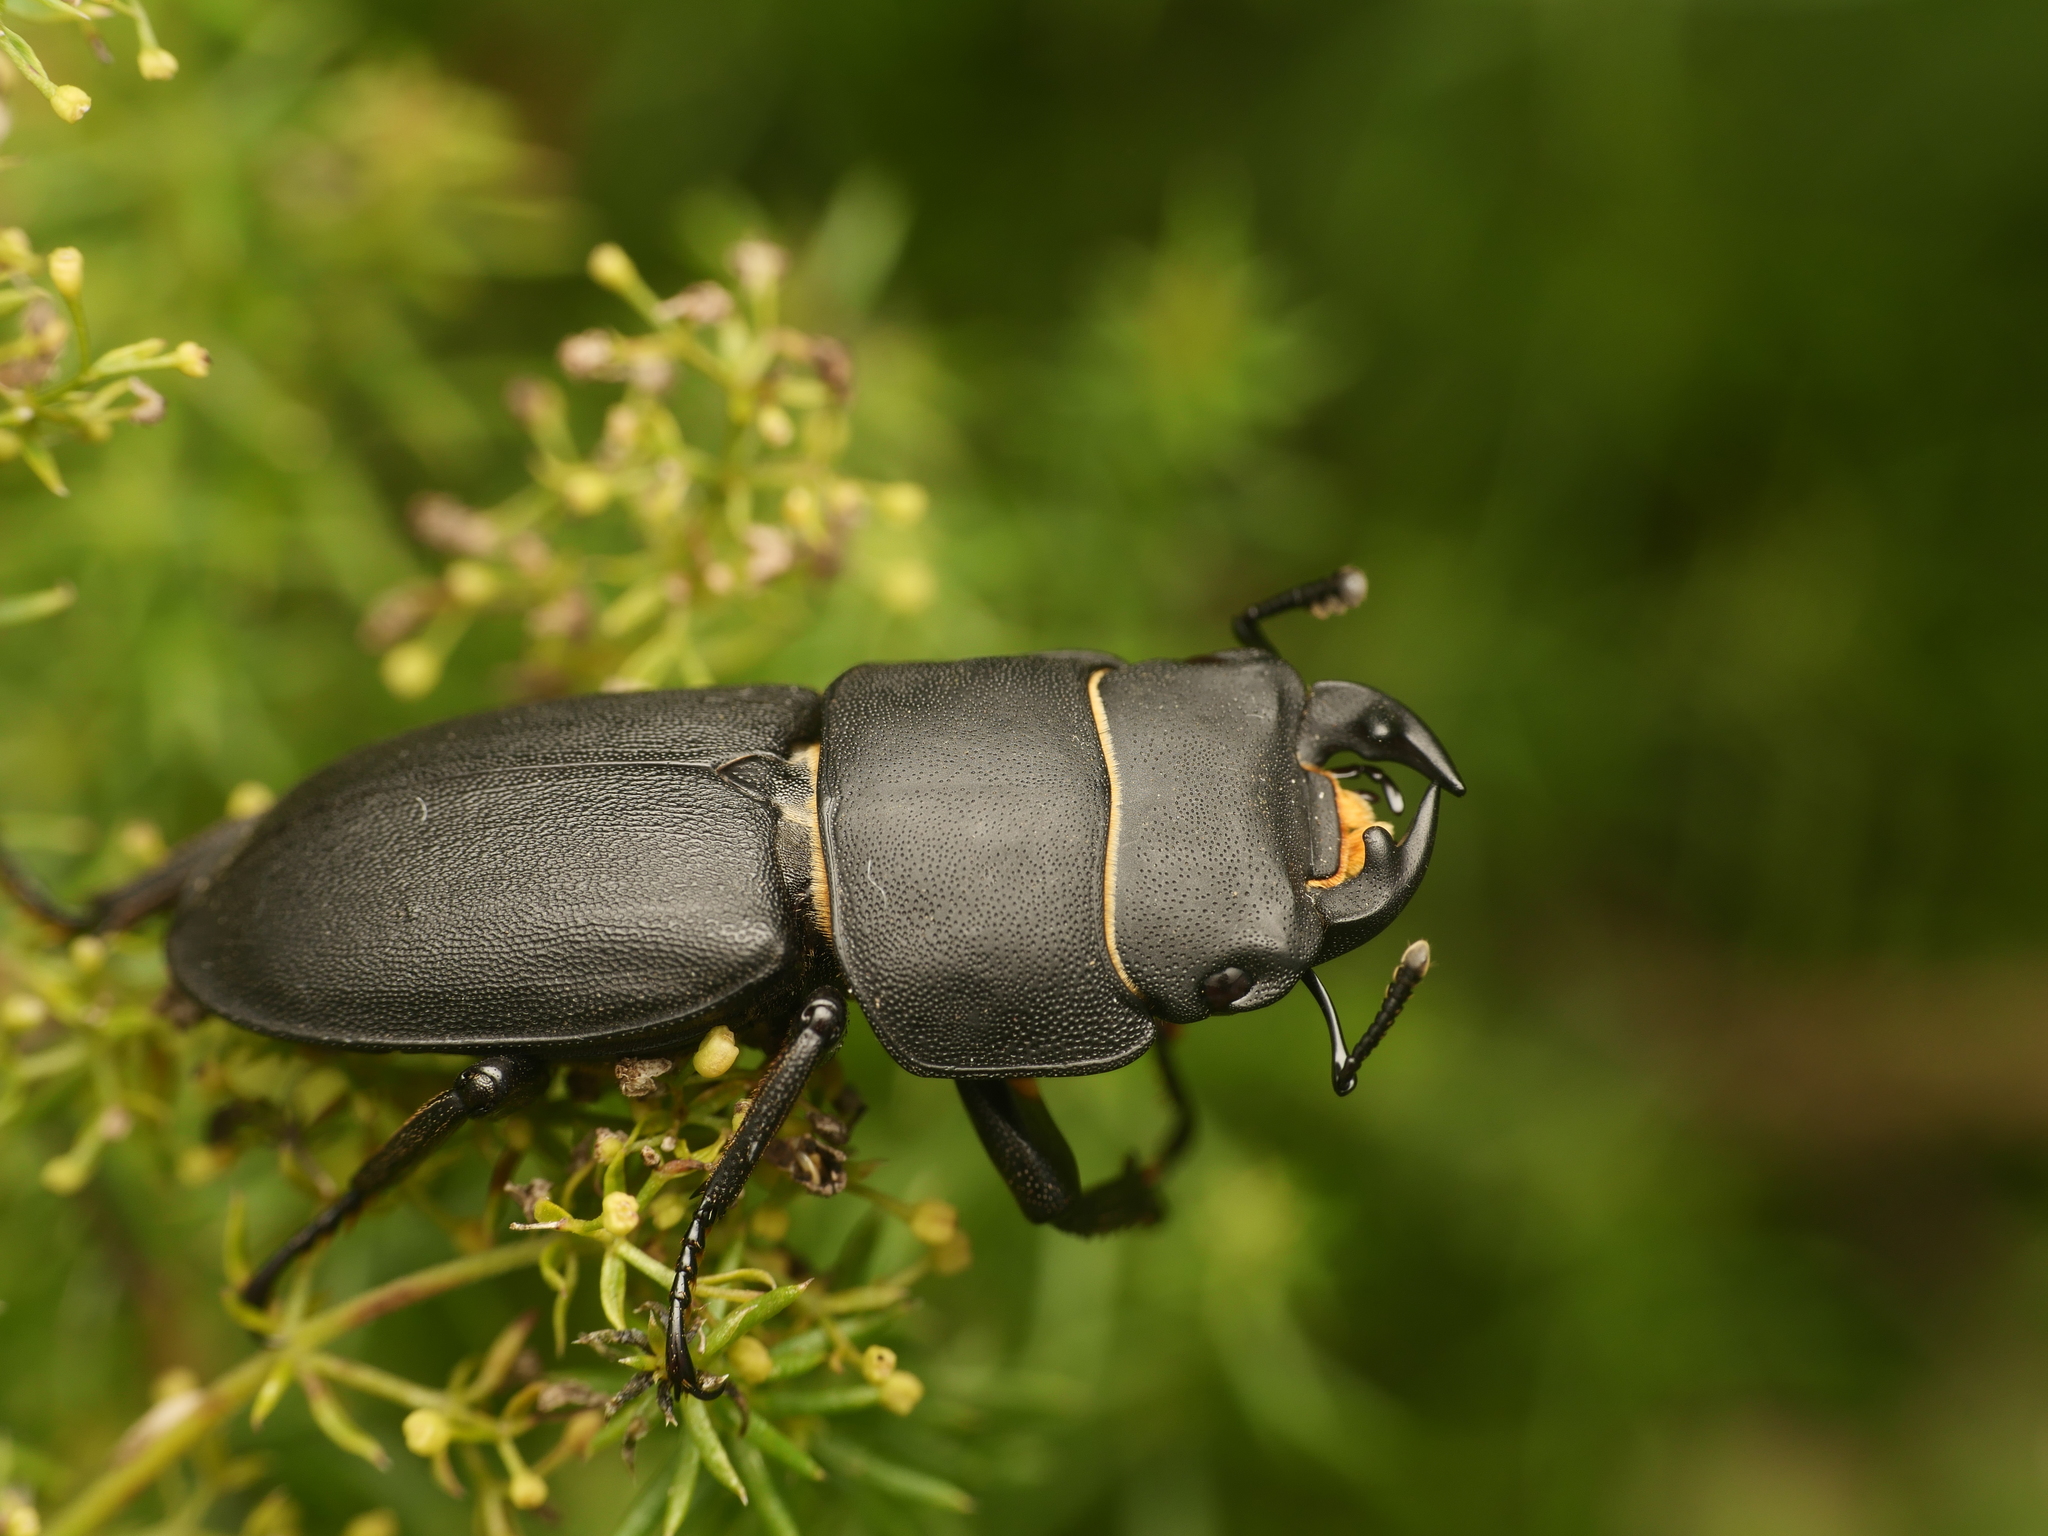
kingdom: Animalia
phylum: Arthropoda
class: Insecta
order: Coleoptera
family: Lucanidae
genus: Dorcus
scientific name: Dorcus parallelipipedus
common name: Lesser stag beetle
